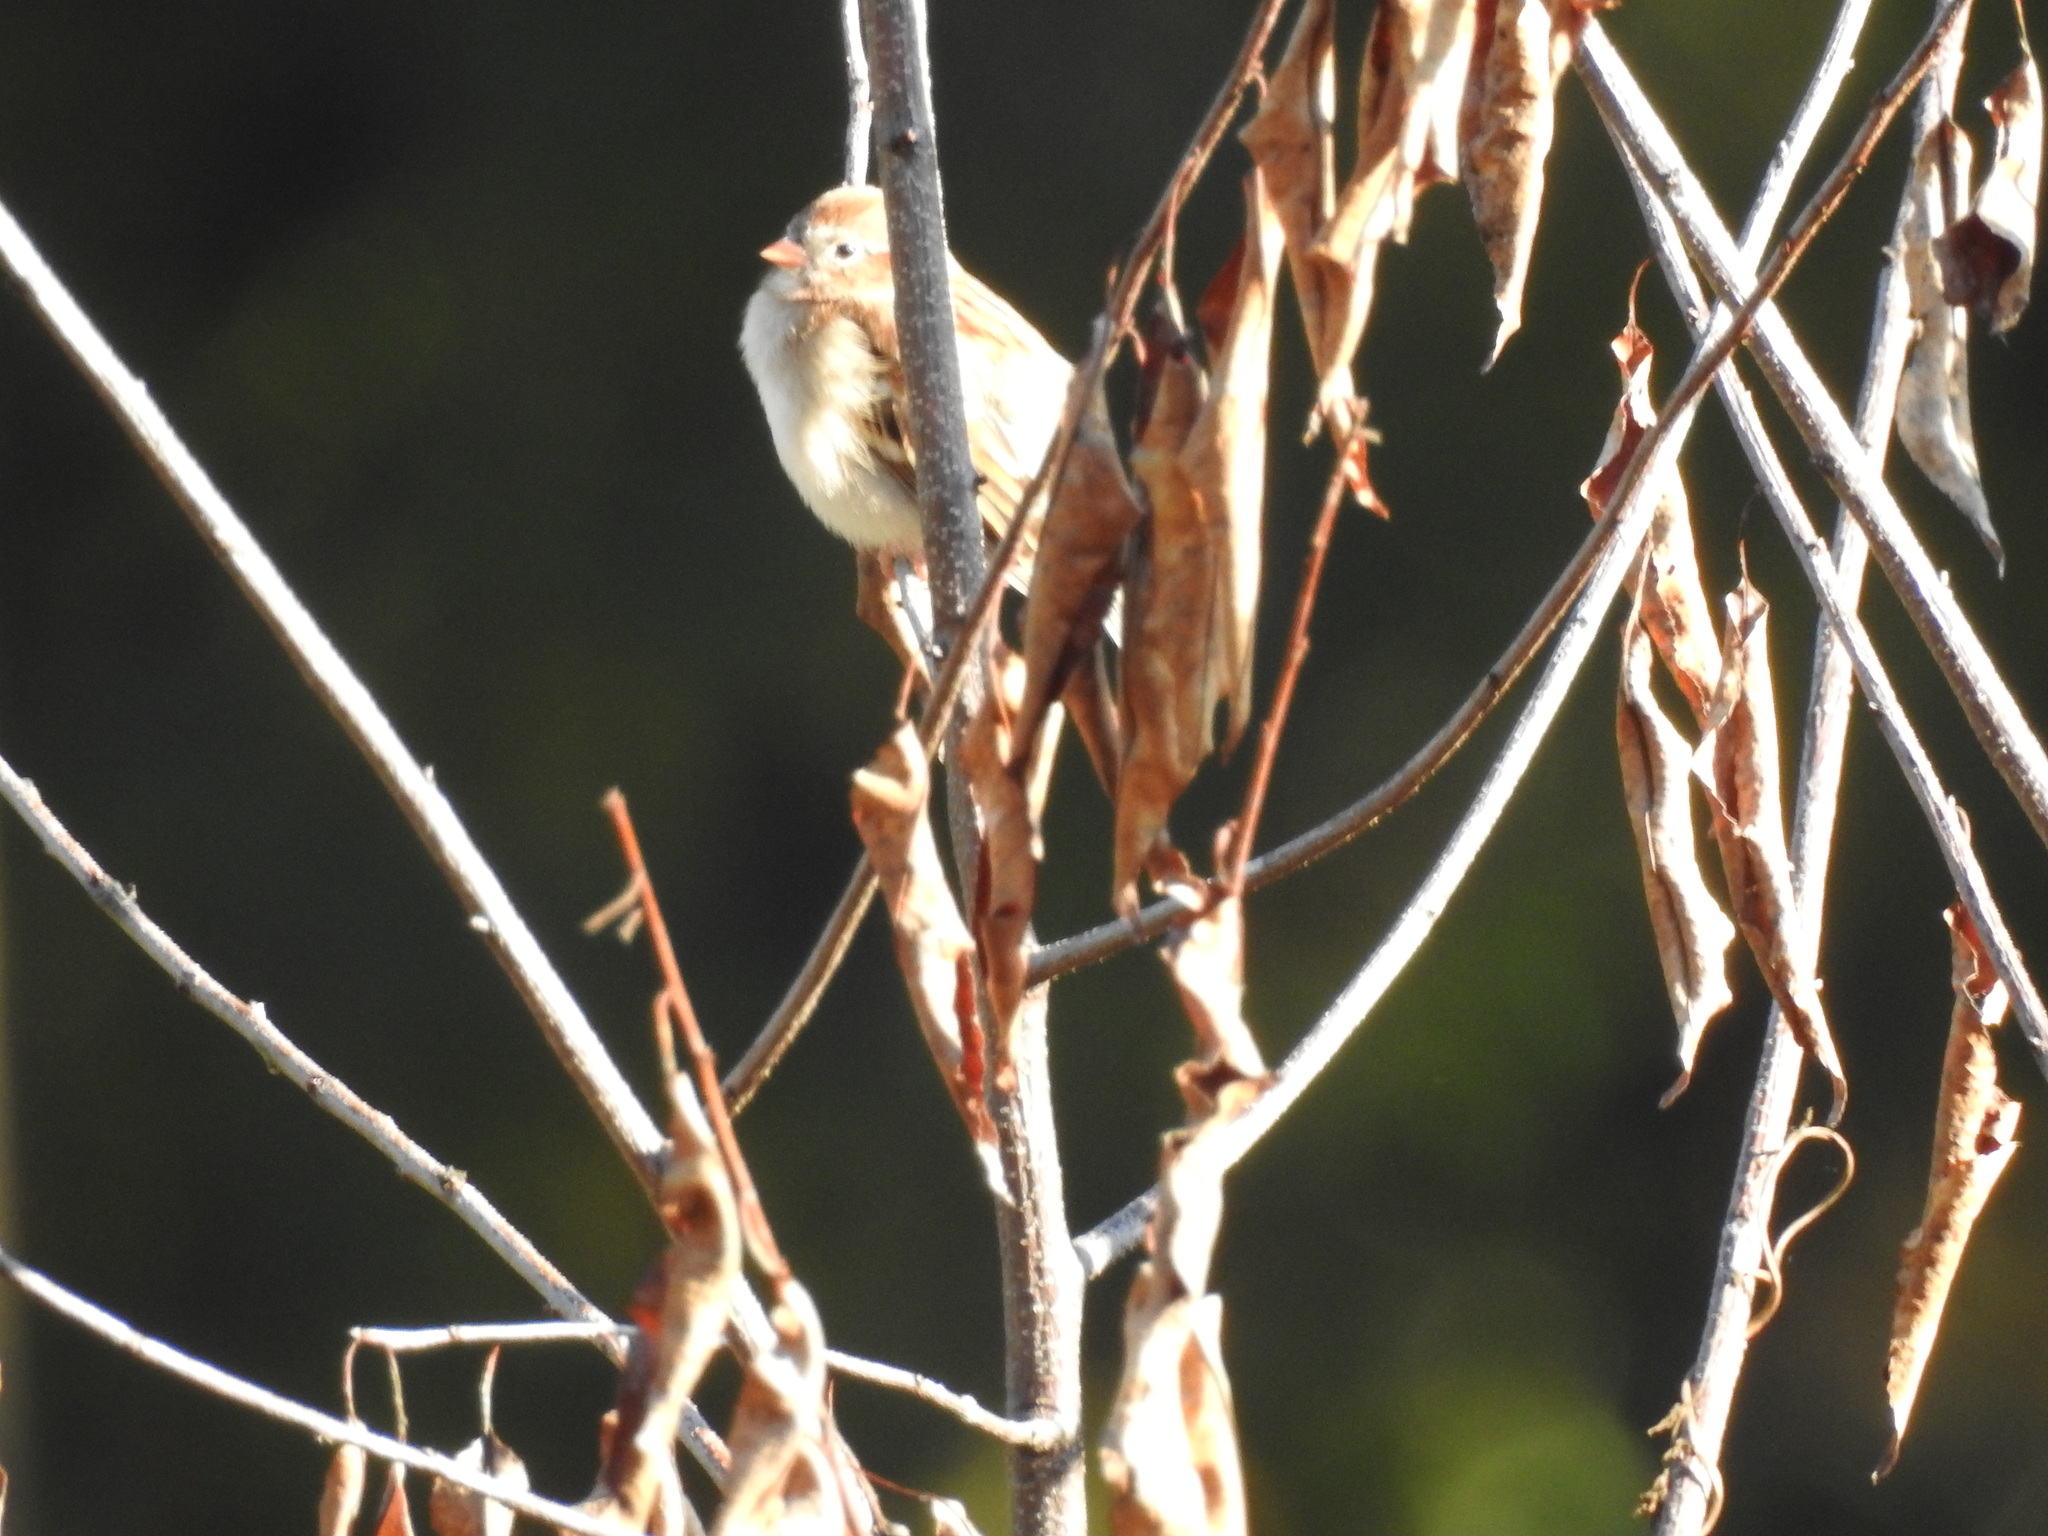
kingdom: Animalia
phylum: Chordata
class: Aves
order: Passeriformes
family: Passerellidae
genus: Spizella
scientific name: Spizella pusilla
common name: Field sparrow
